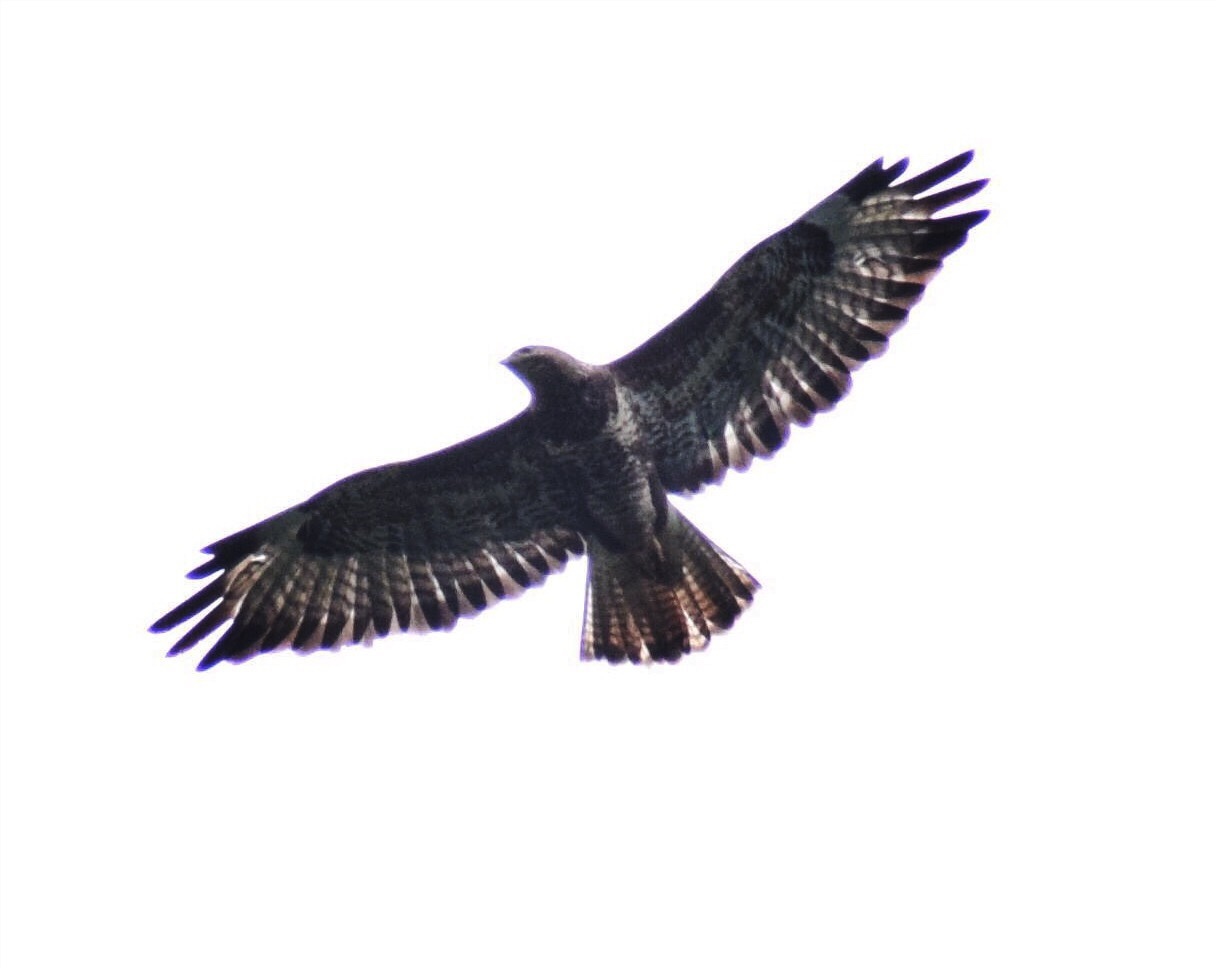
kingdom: Animalia
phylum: Chordata
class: Aves
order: Accipitriformes
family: Accipitridae
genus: Buteo
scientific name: Buteo buteo
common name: Common buzzard
